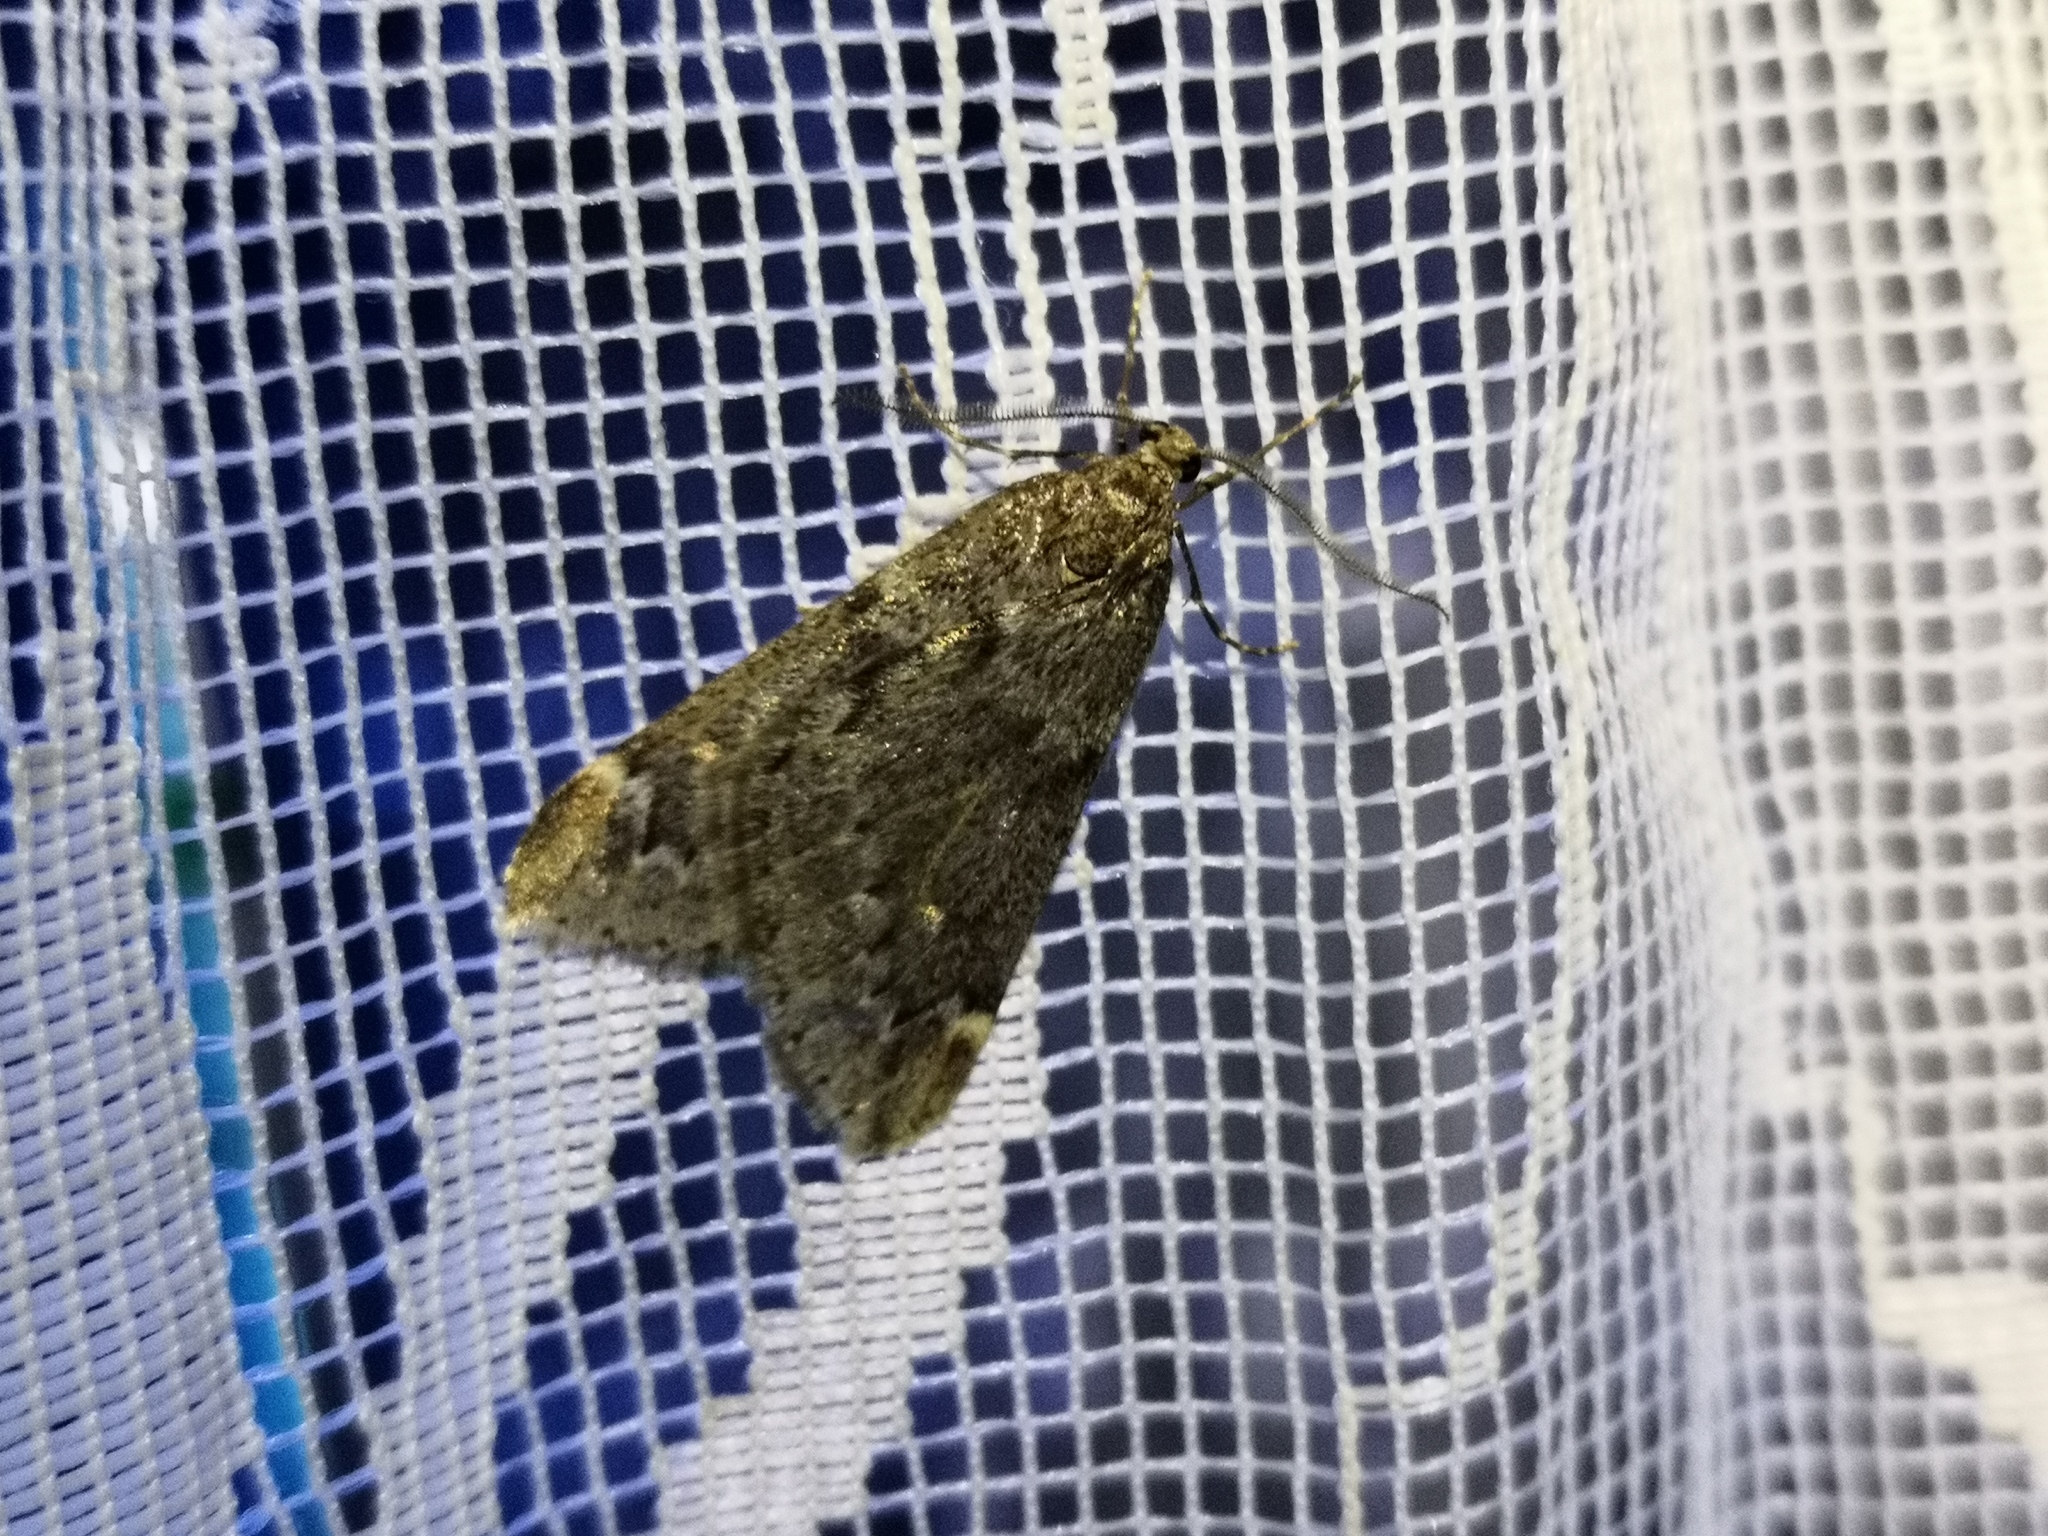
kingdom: Animalia
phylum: Arthropoda
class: Insecta
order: Lepidoptera
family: Geometridae
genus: Alsophila
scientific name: Alsophila aescularia
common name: March moth
